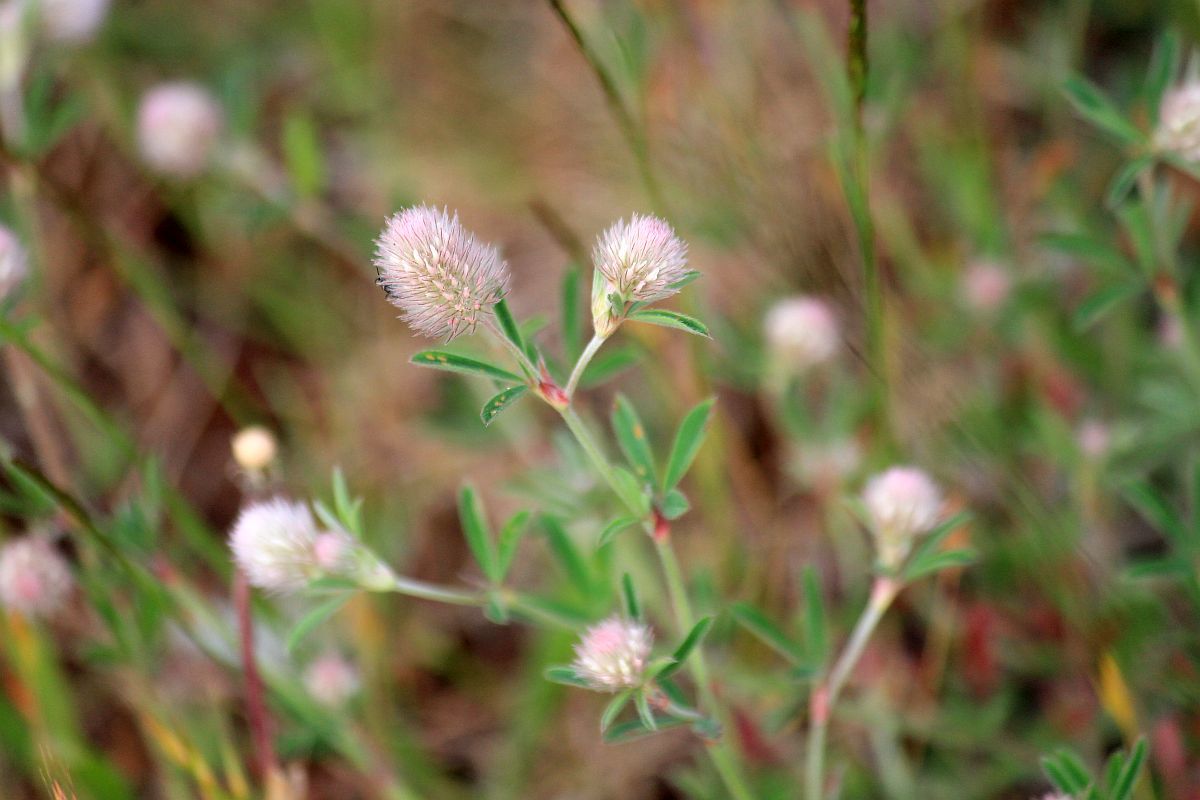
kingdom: Plantae
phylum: Tracheophyta
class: Magnoliopsida
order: Fabales
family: Fabaceae
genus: Trifolium
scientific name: Trifolium arvense
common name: Hare's-foot clover
